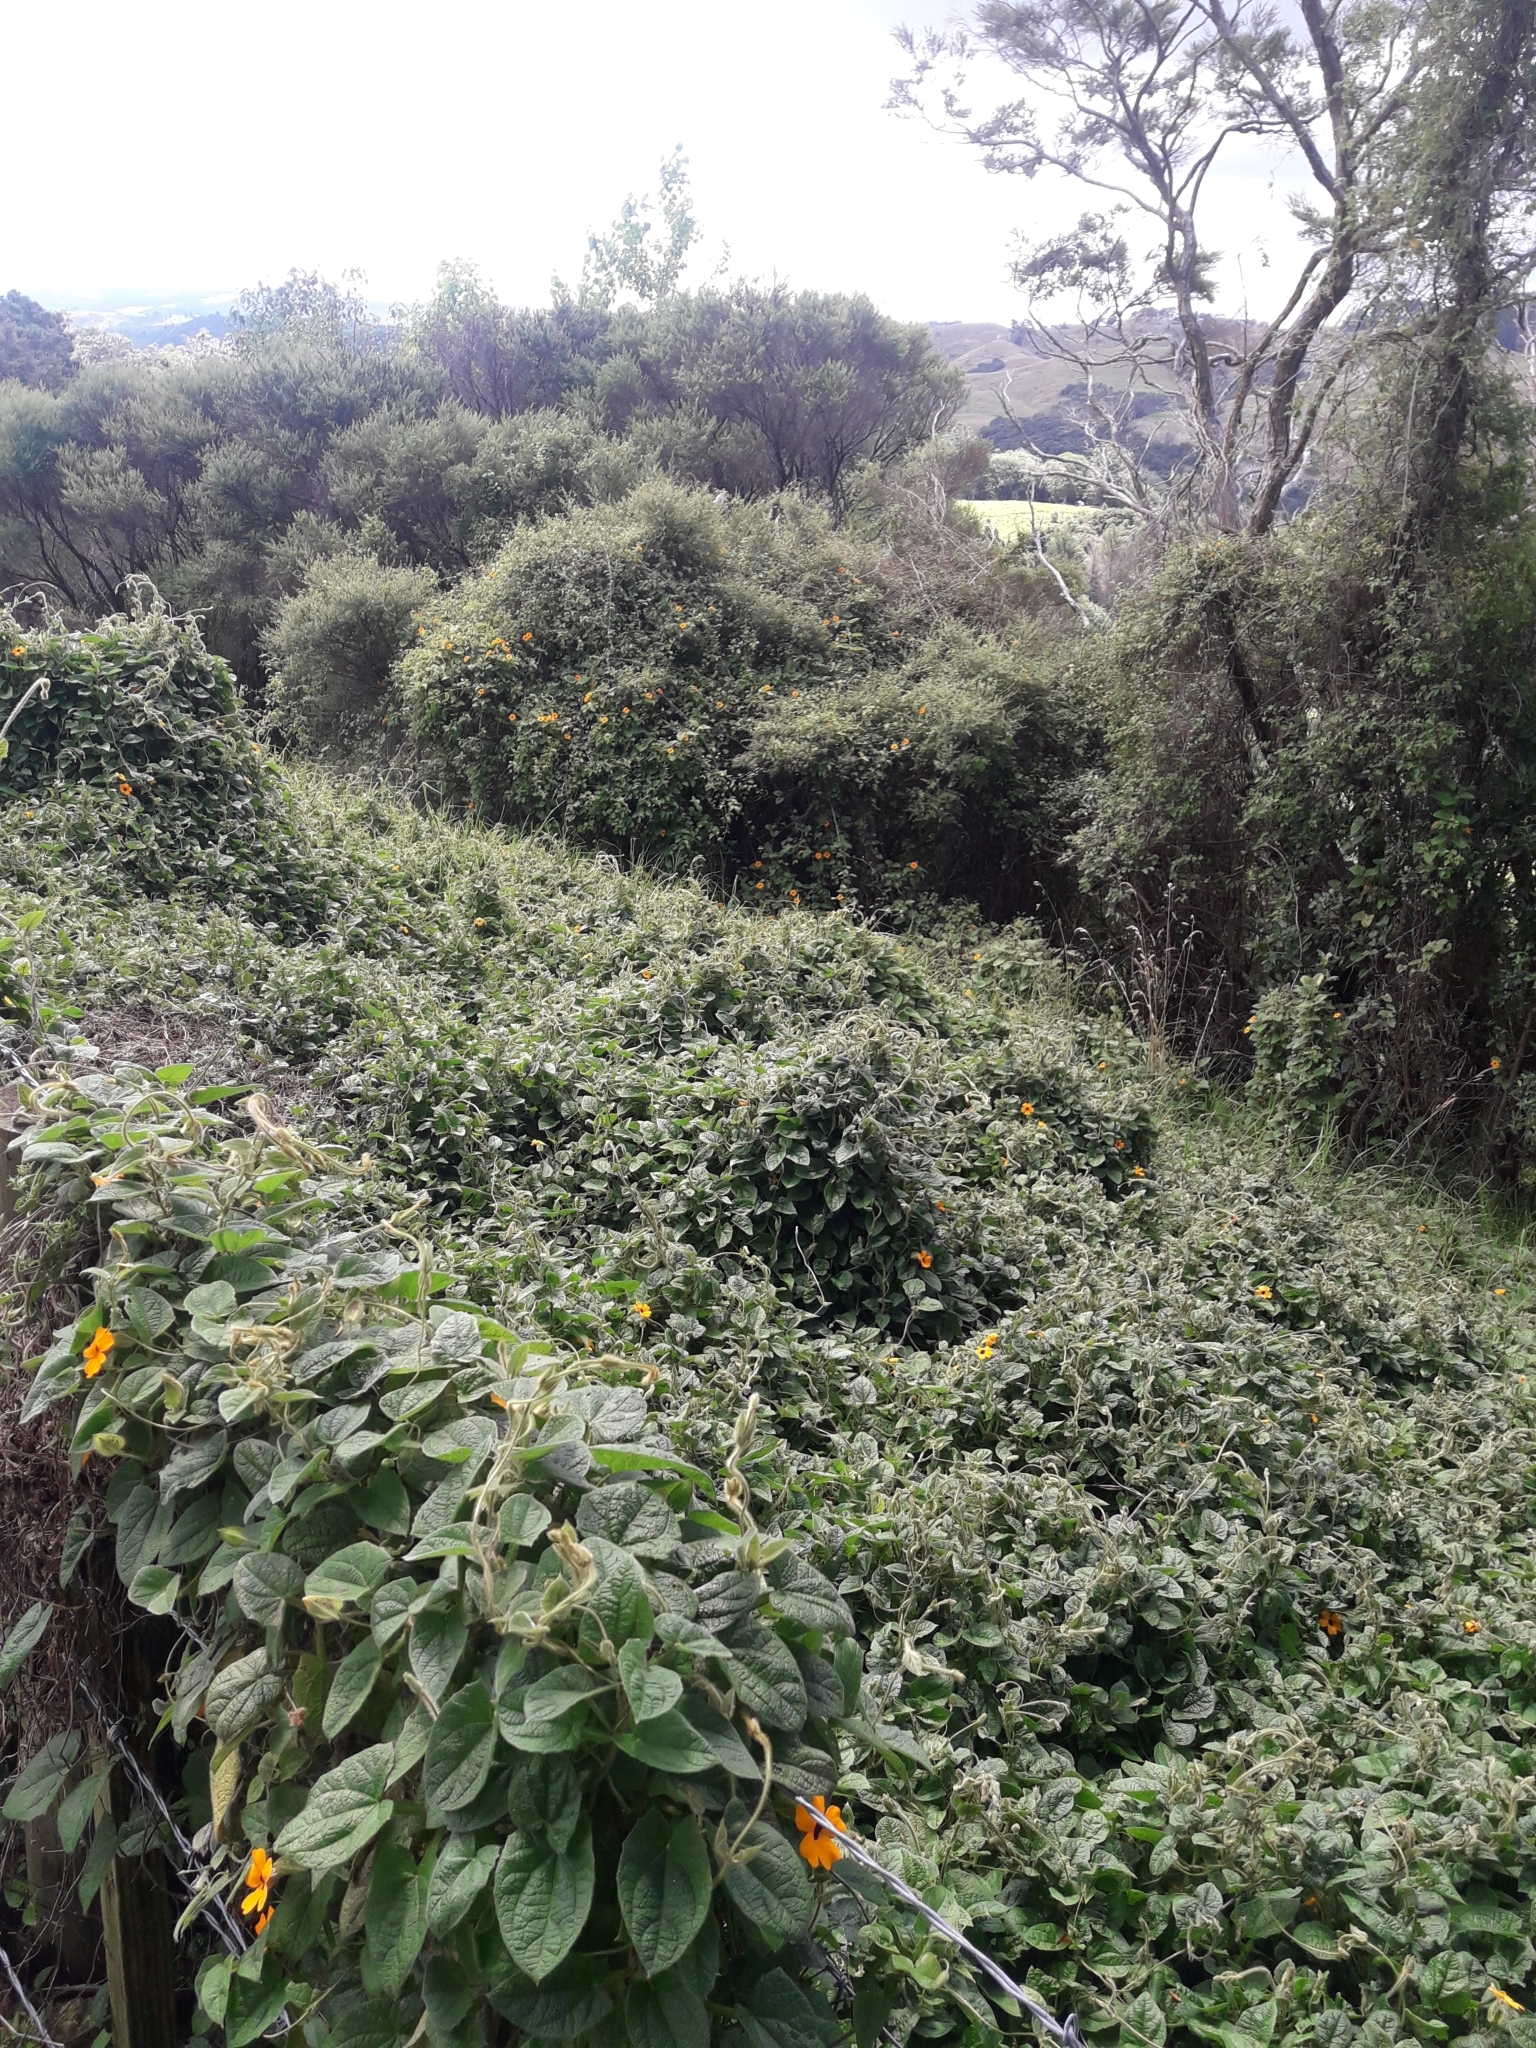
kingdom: Plantae
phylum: Tracheophyta
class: Magnoliopsida
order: Lamiales
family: Acanthaceae
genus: Thunbergia
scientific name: Thunbergia alata
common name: Blackeyed susan vine
